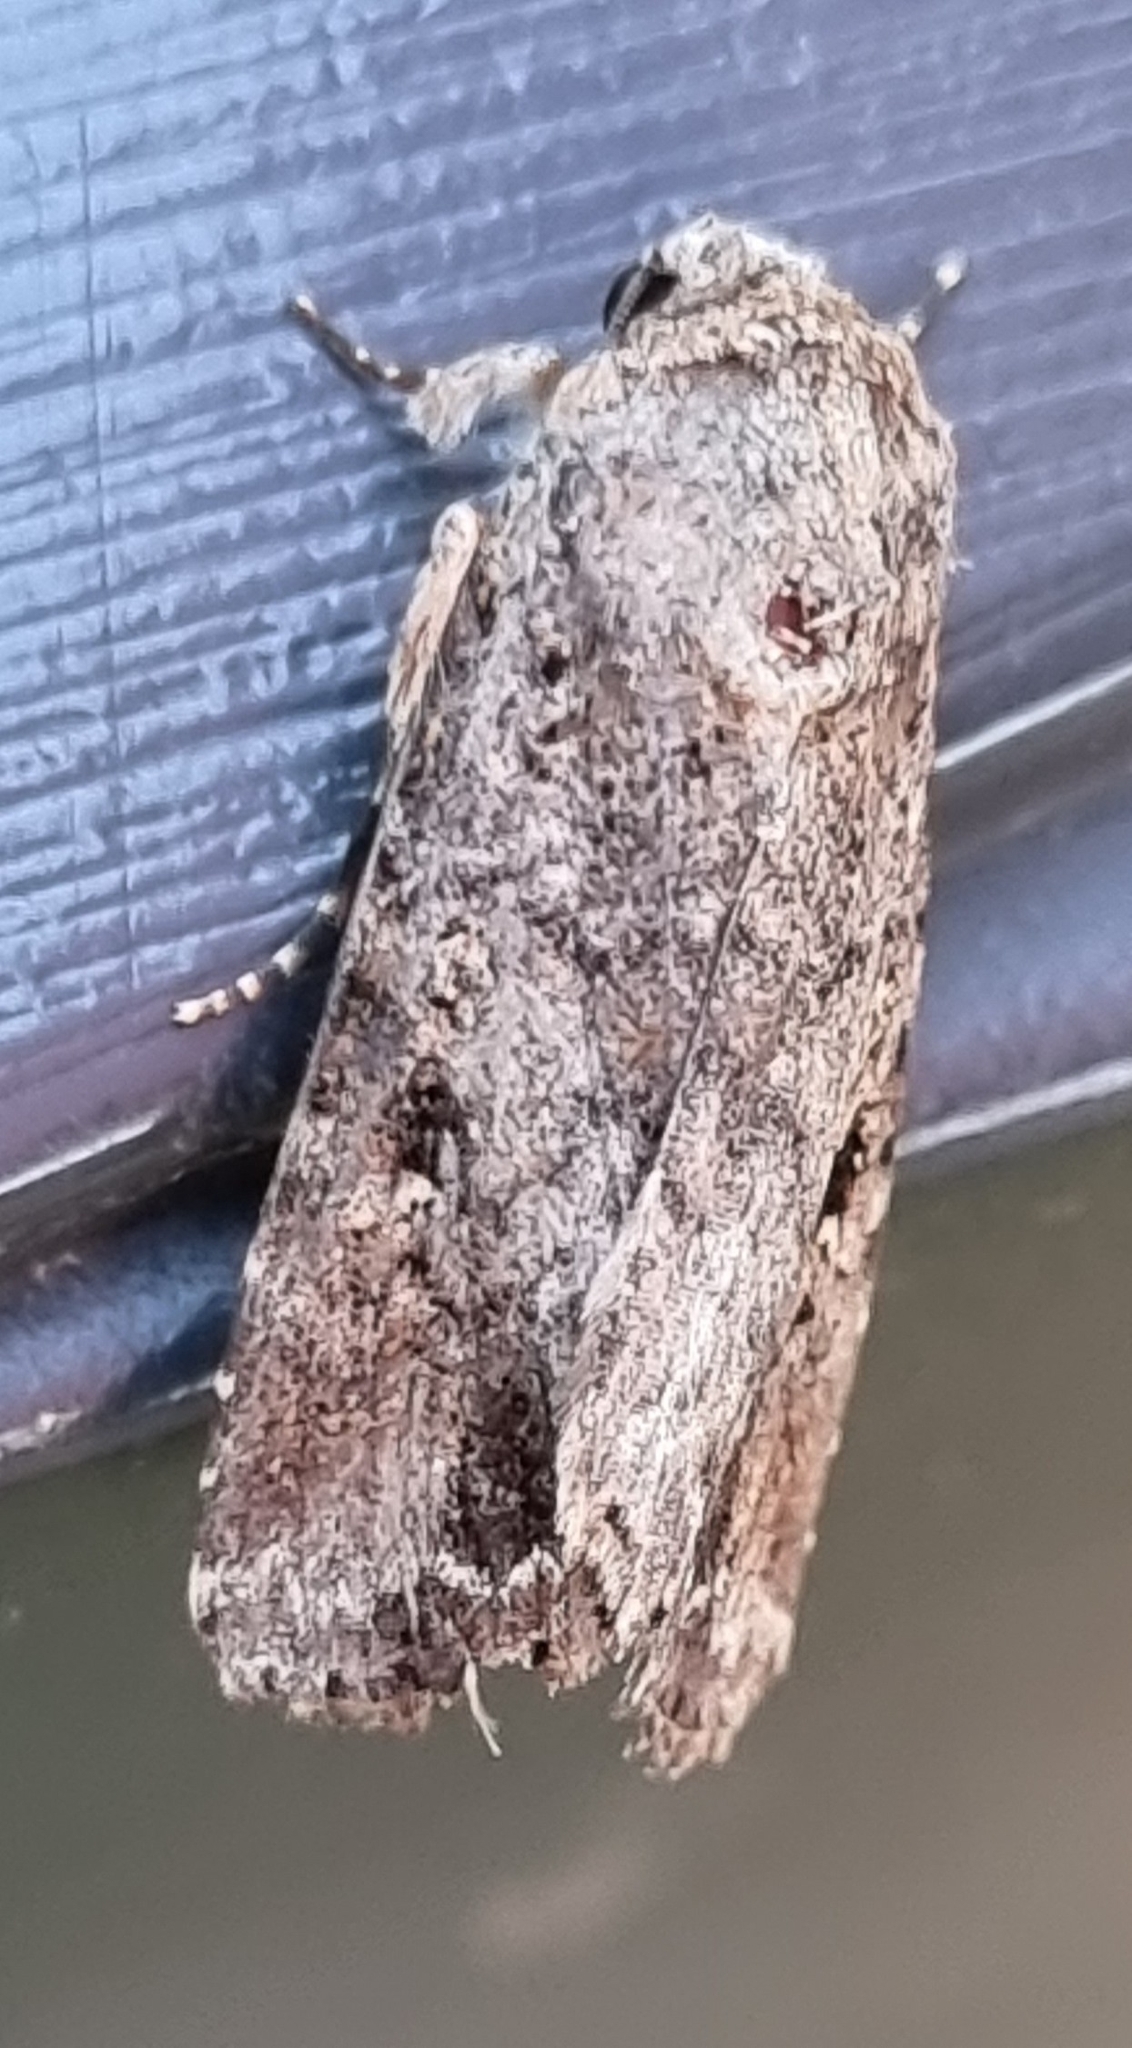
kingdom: Animalia
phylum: Arthropoda
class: Insecta
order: Lepidoptera
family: Noctuidae
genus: Spodoptera
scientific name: Spodoptera mauritia
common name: Lawn armyworm
